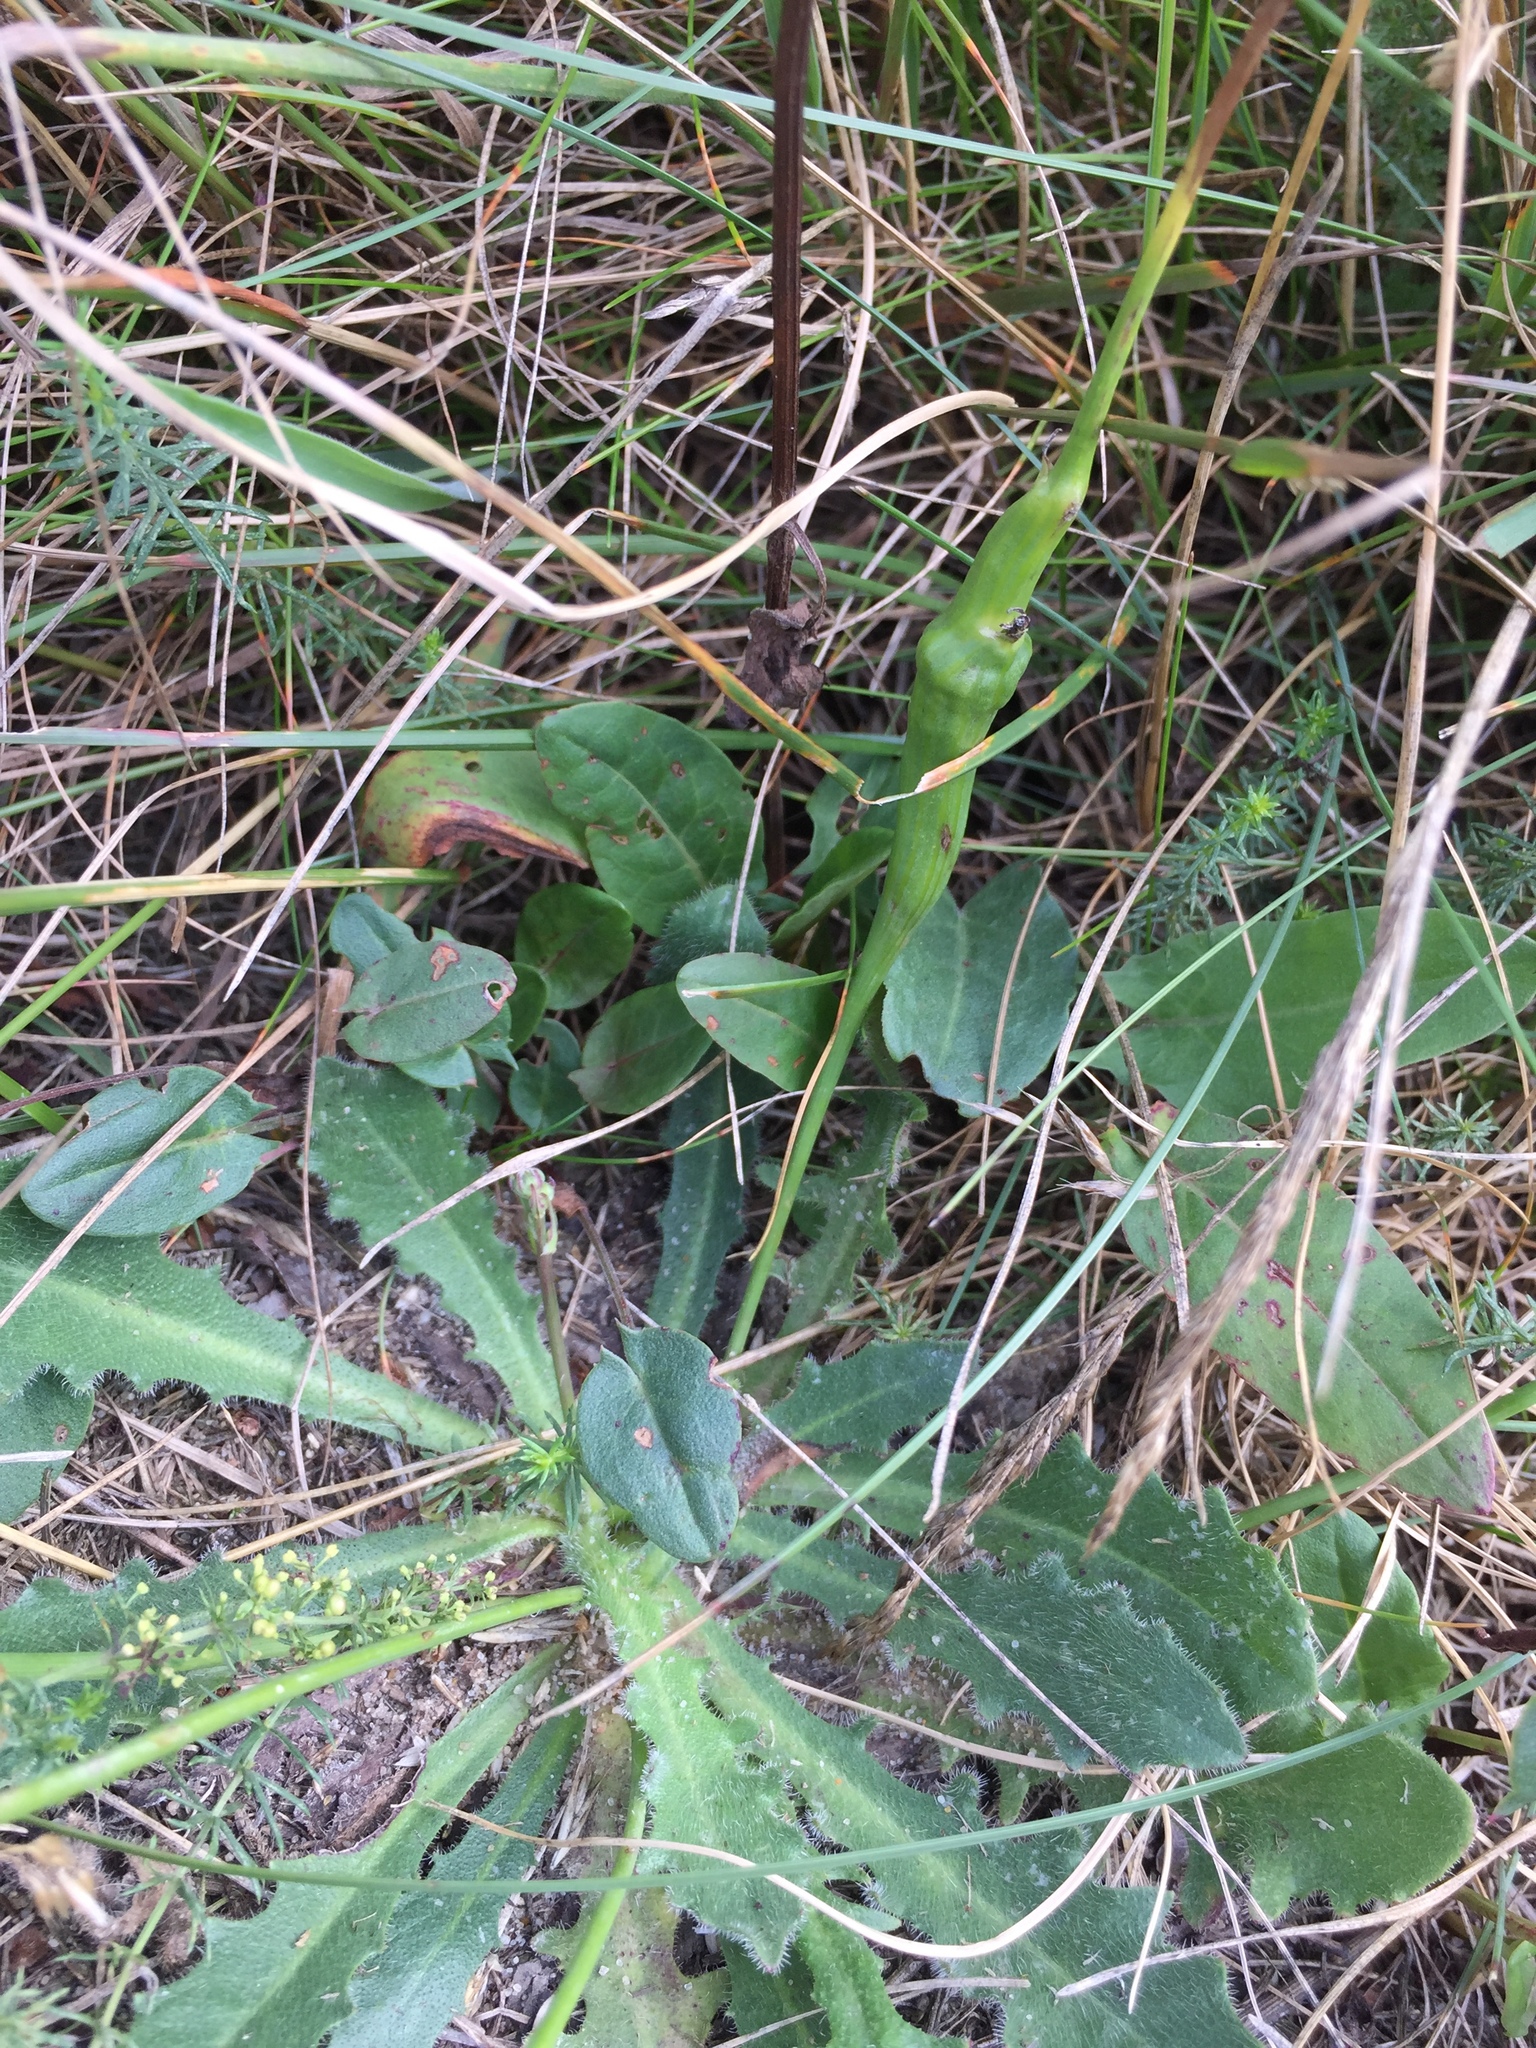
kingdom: Animalia
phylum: Arthropoda
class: Insecta
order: Hymenoptera
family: Cynipidae
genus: Phanacis
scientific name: Phanacis hypochoeridis
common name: Gall wasp
